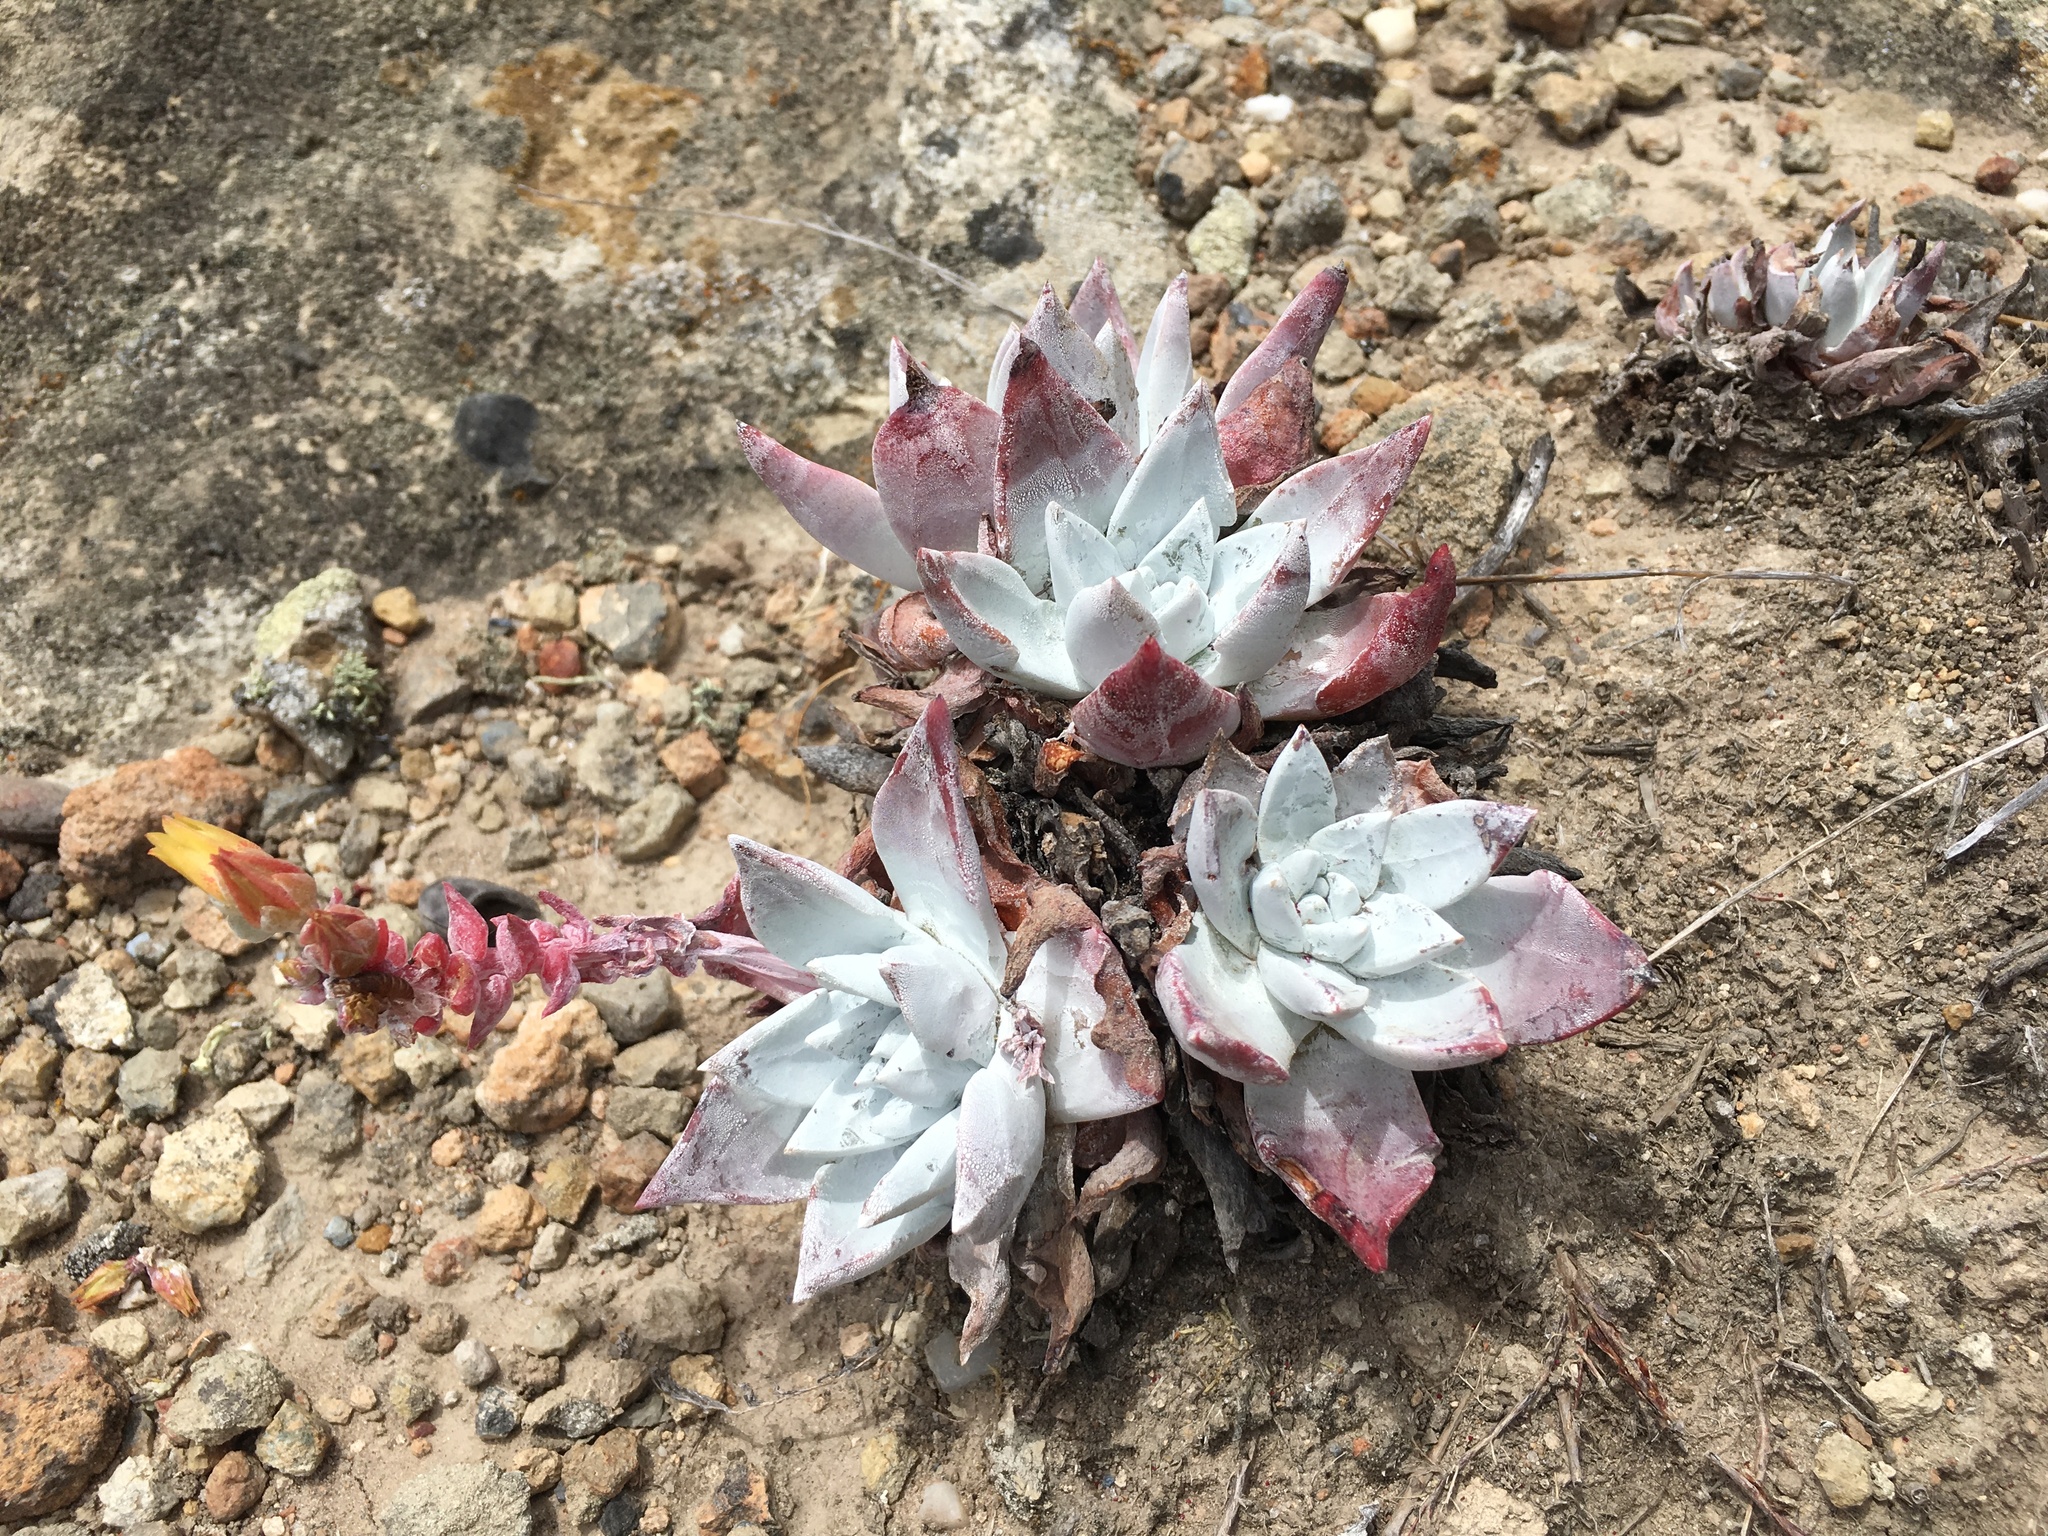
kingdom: Plantae
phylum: Tracheophyta
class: Magnoliopsida
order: Saxifragales
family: Crassulaceae
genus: Dudleya
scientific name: Dudleya greenei
